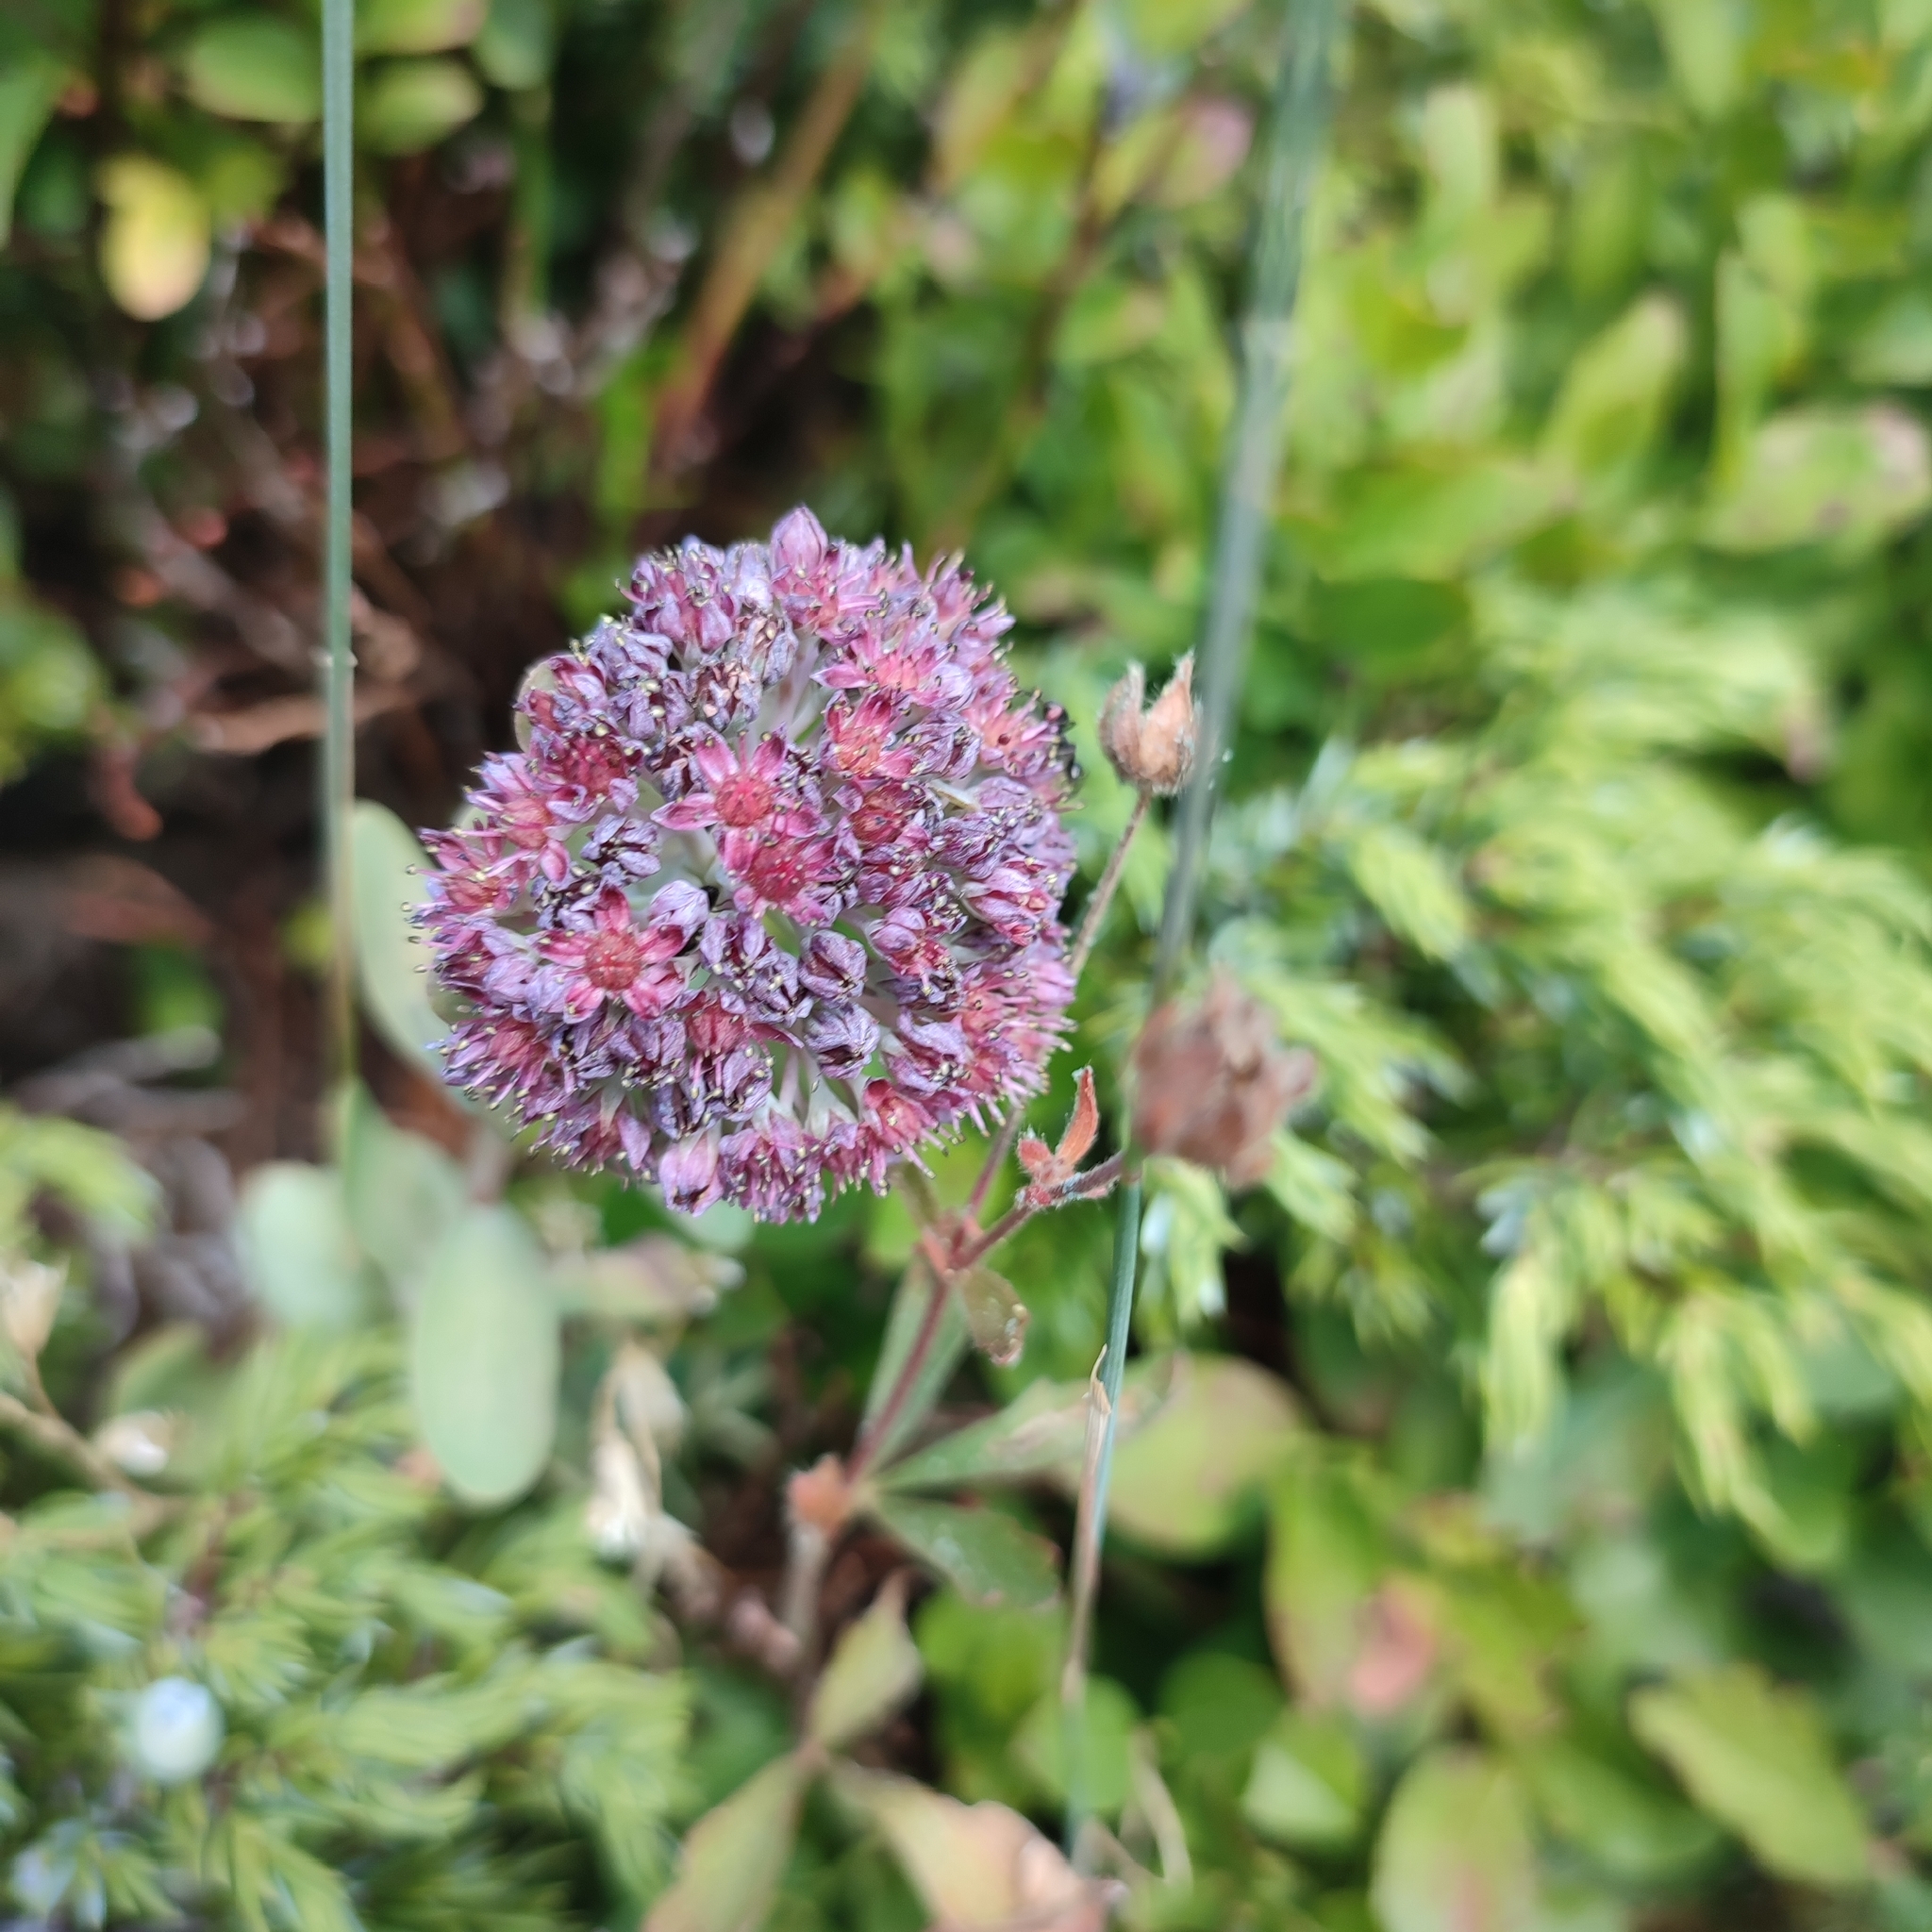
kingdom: Plantae
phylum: Tracheophyta
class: Magnoliopsida
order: Saxifragales
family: Crassulaceae
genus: Hylotelephium
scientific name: Hylotelephium anacampseros
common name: Love-restorer
